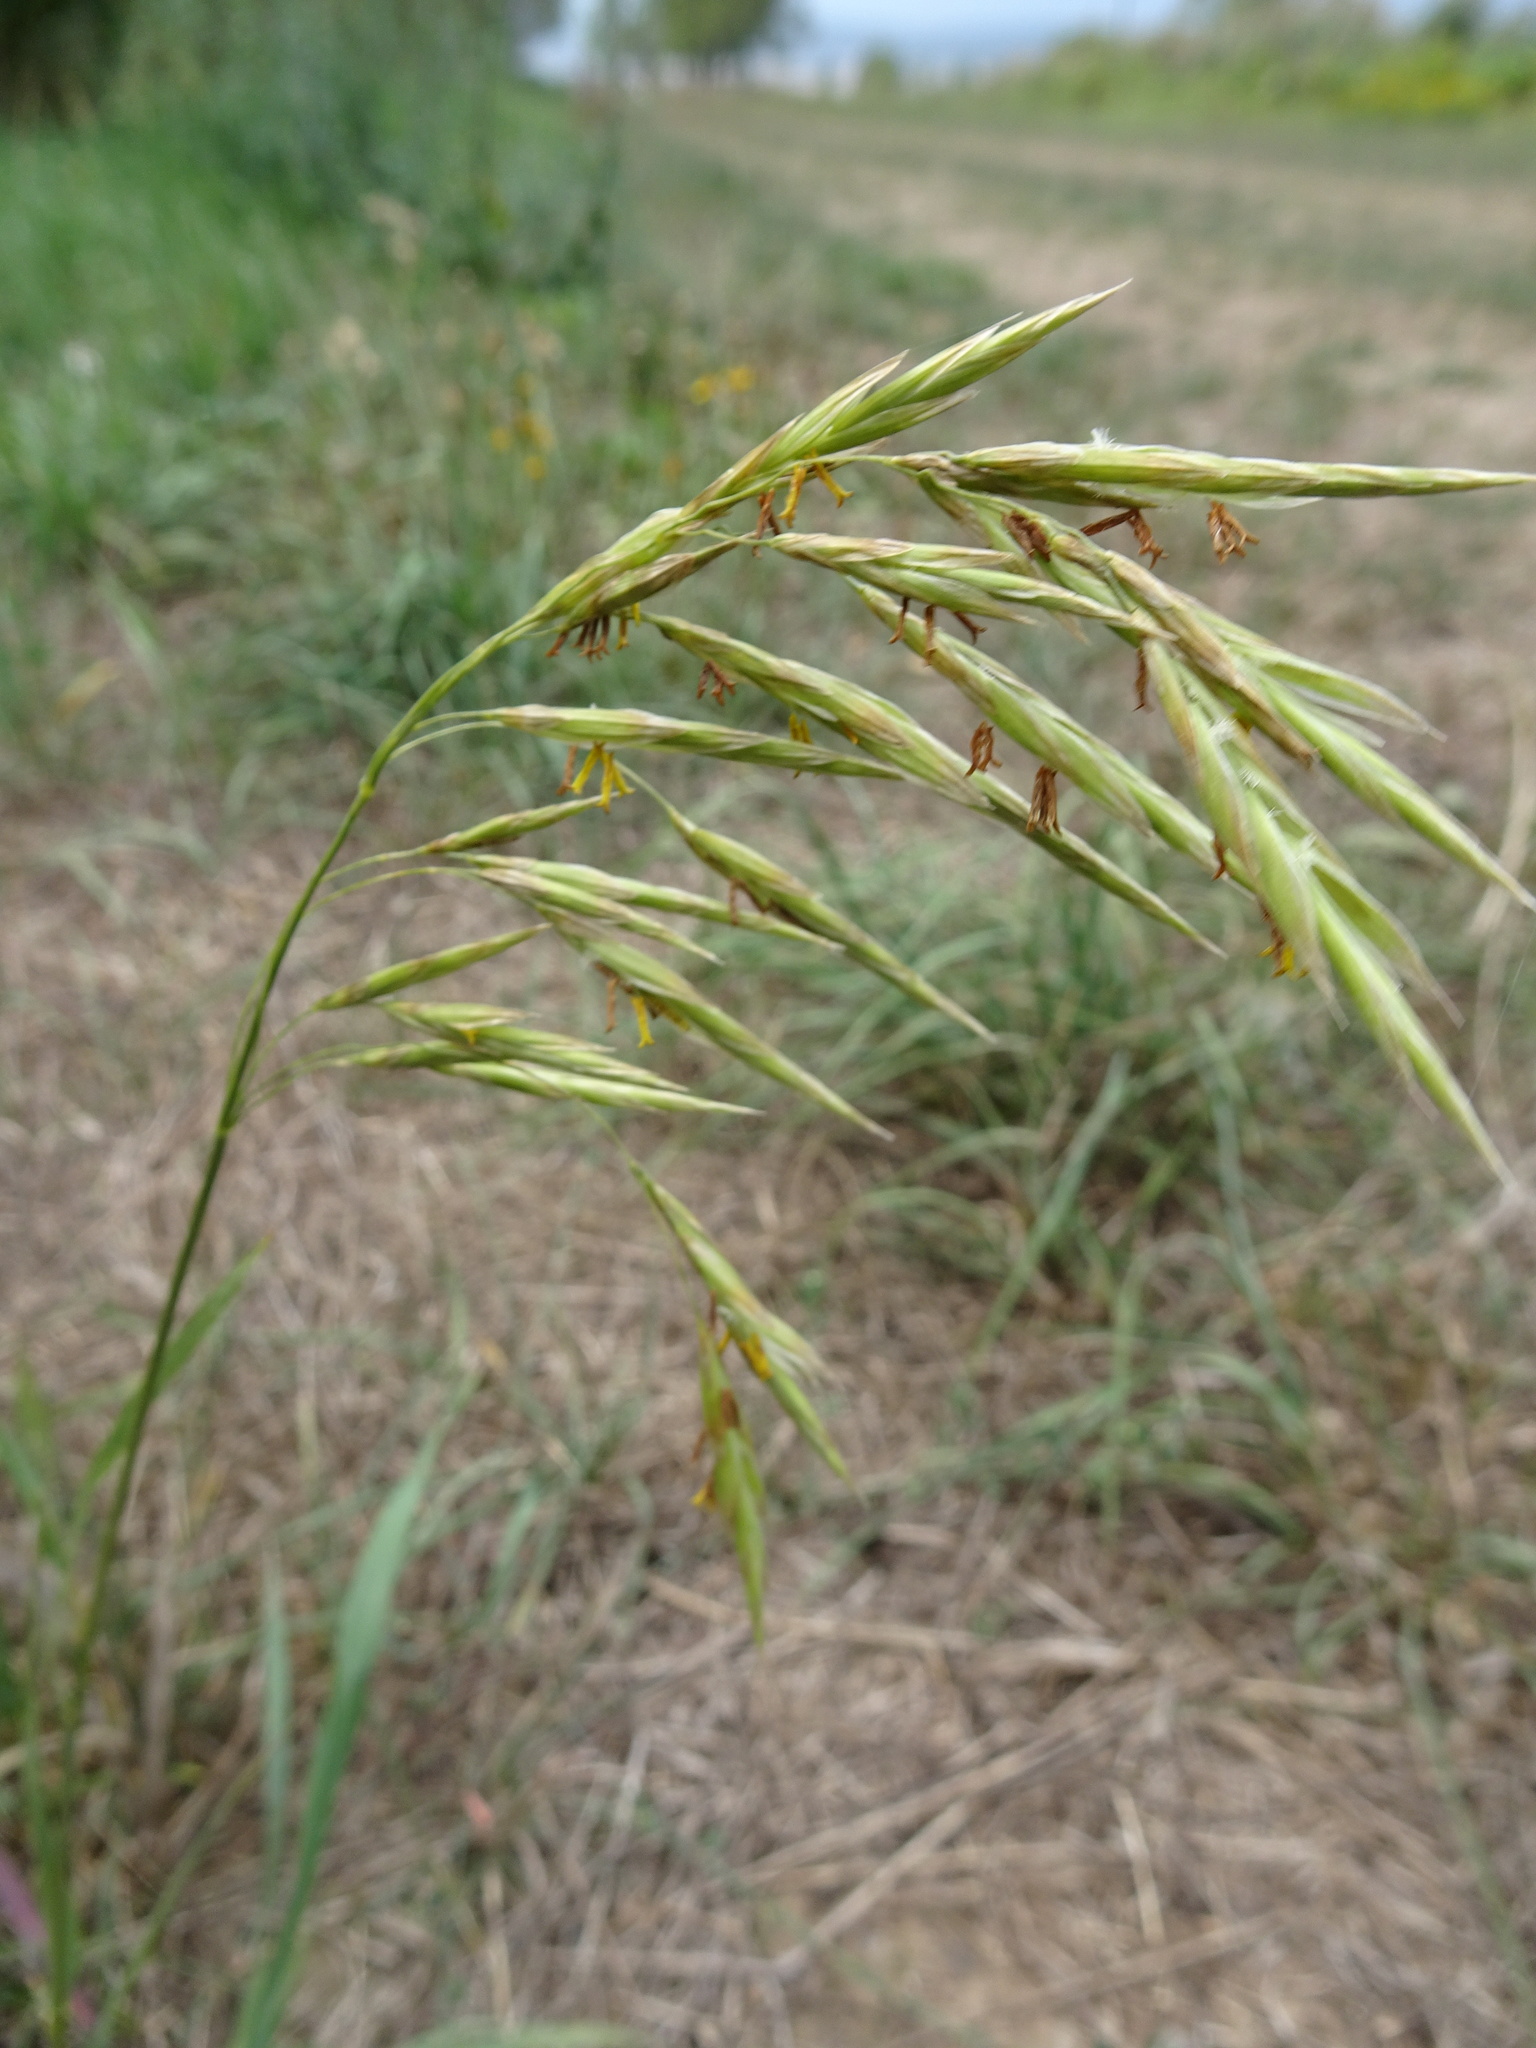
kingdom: Plantae
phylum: Tracheophyta
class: Liliopsida
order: Poales
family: Poaceae
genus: Bromus
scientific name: Bromus inermis
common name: Smooth brome
